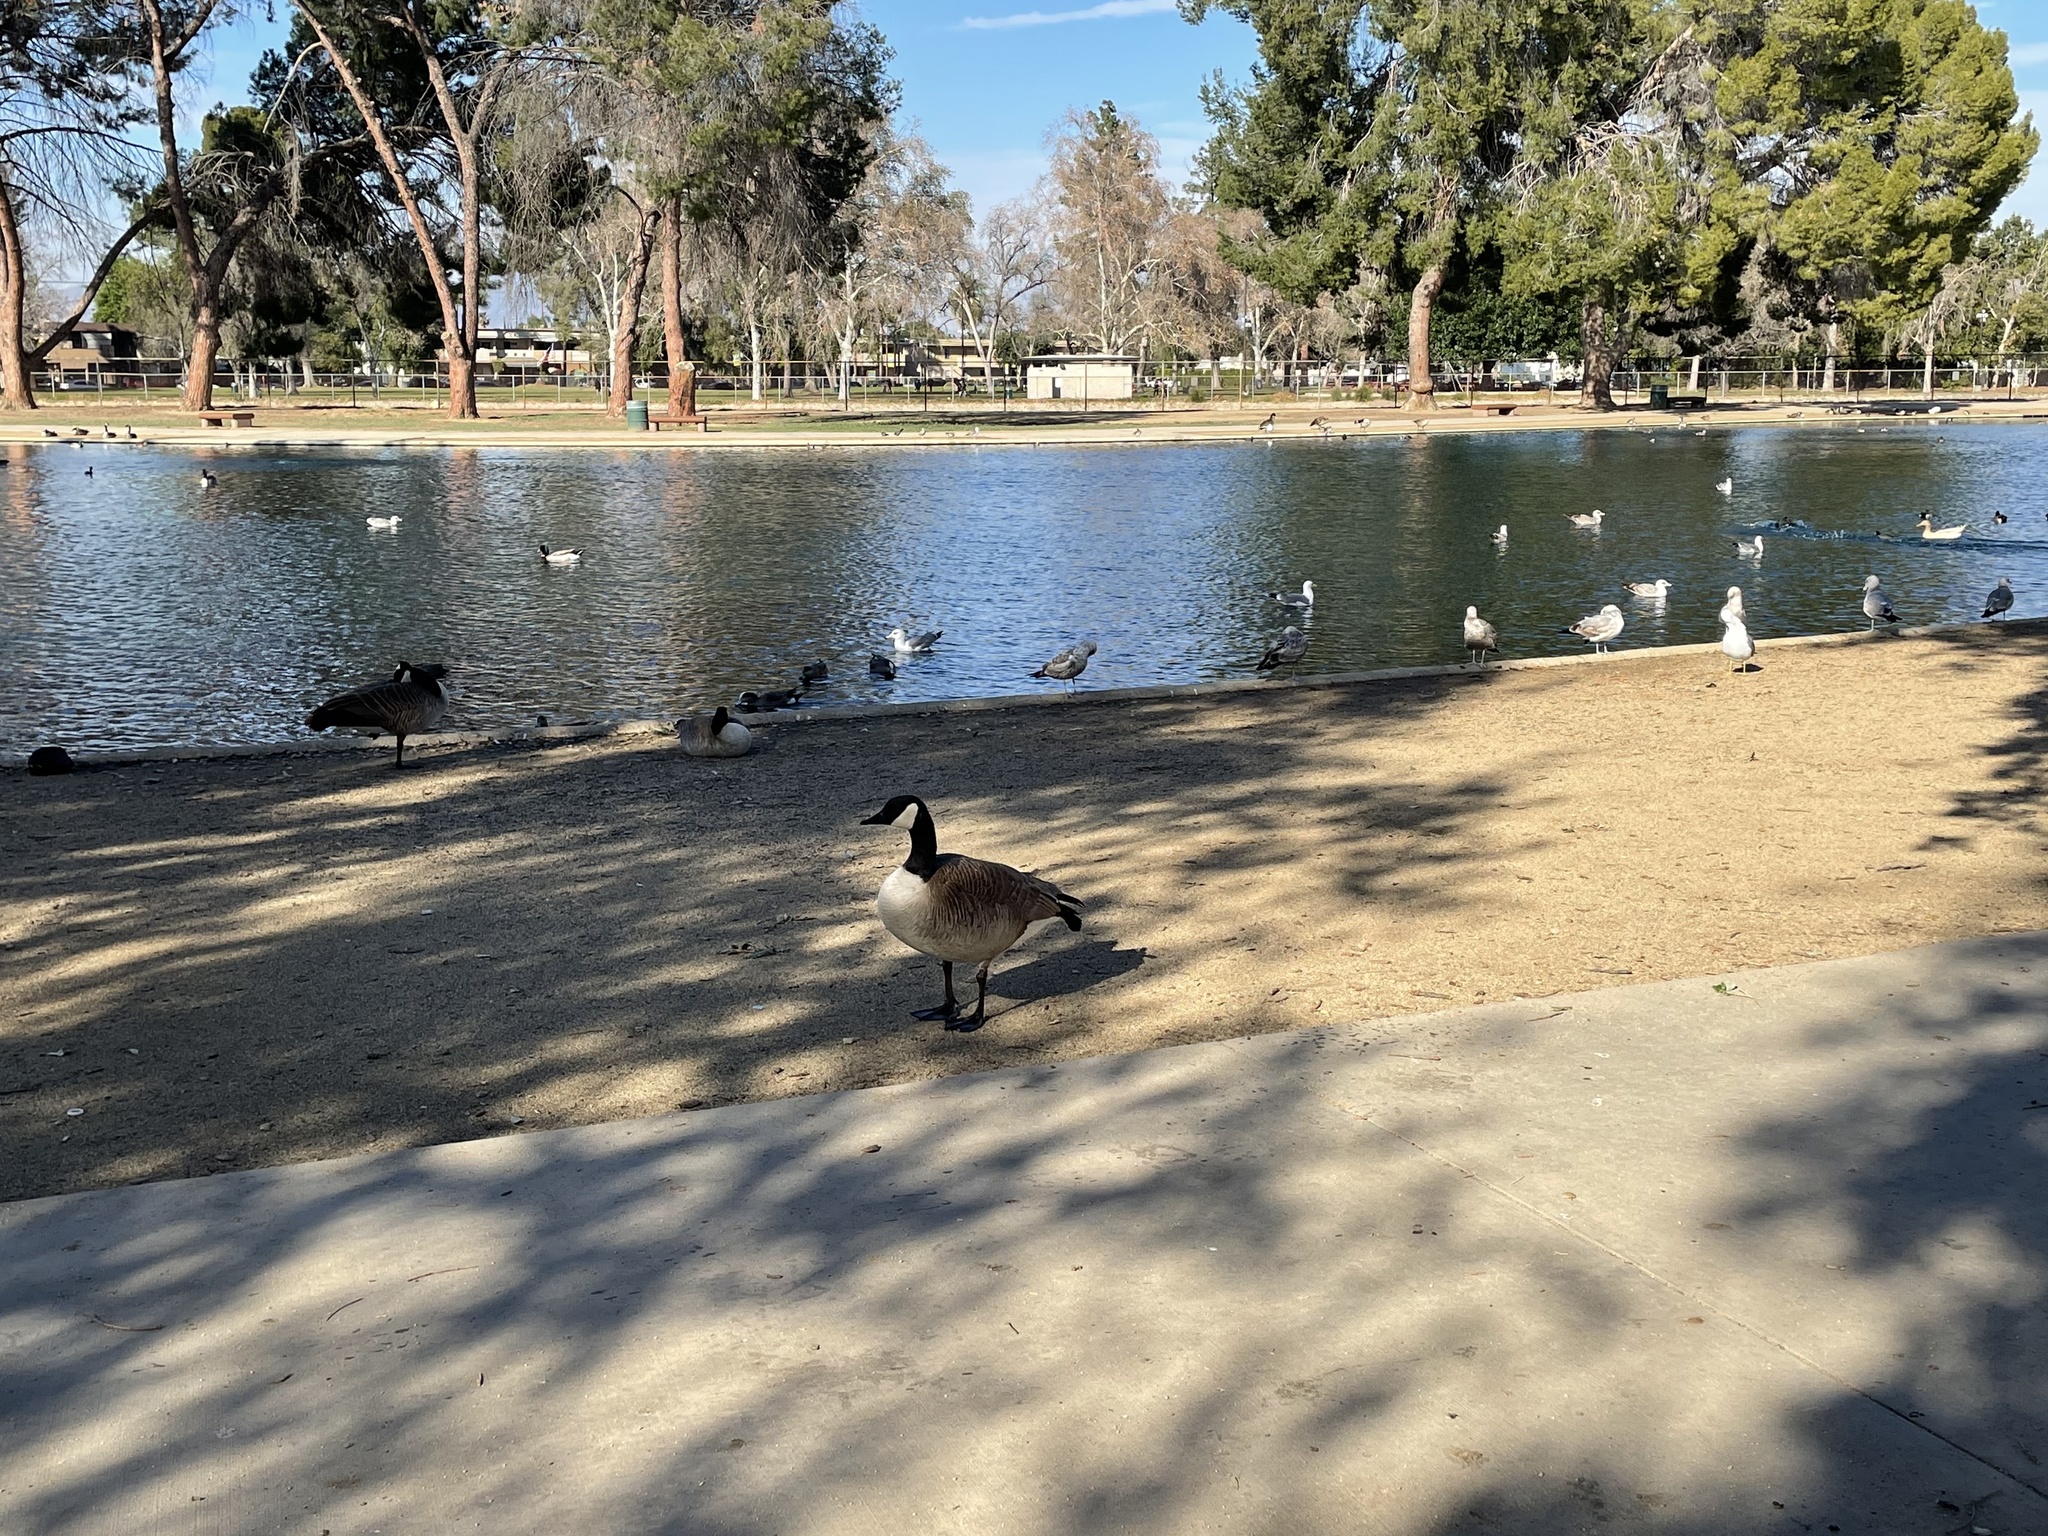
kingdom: Animalia
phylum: Chordata
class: Aves
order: Anseriformes
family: Anatidae
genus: Branta
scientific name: Branta canadensis
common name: Canada goose
